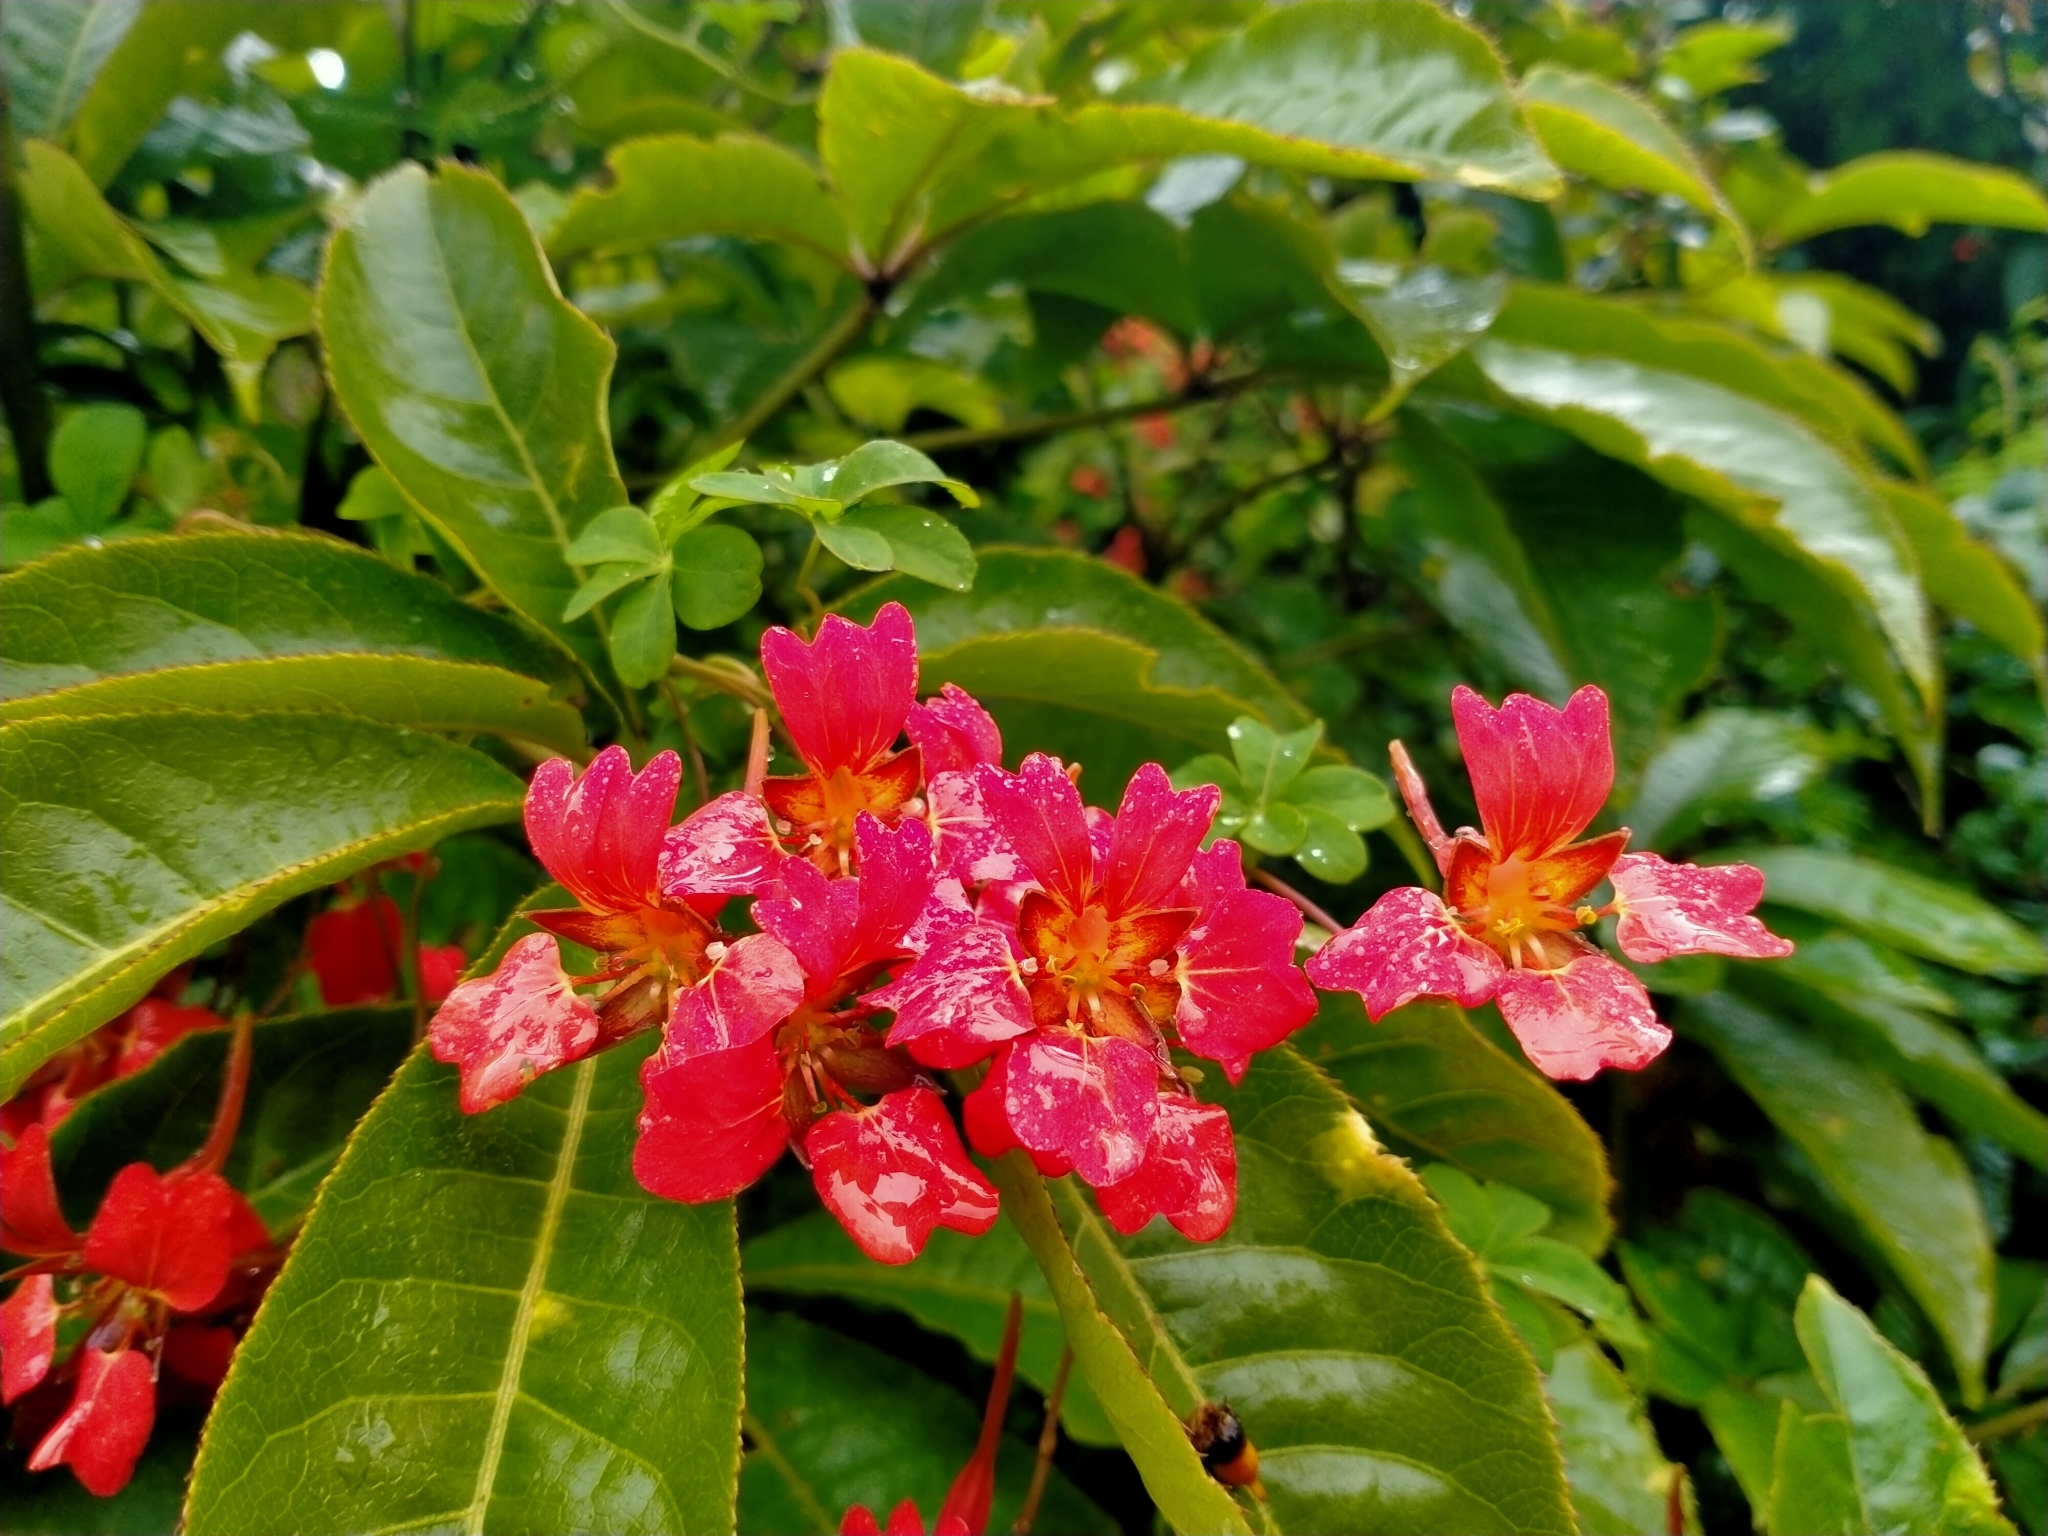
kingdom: Plantae
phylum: Tracheophyta
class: Magnoliopsida
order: Brassicales
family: Tropaeolaceae
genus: Tropaeolum
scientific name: Tropaeolum speciosum
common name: Flame nasturtium
